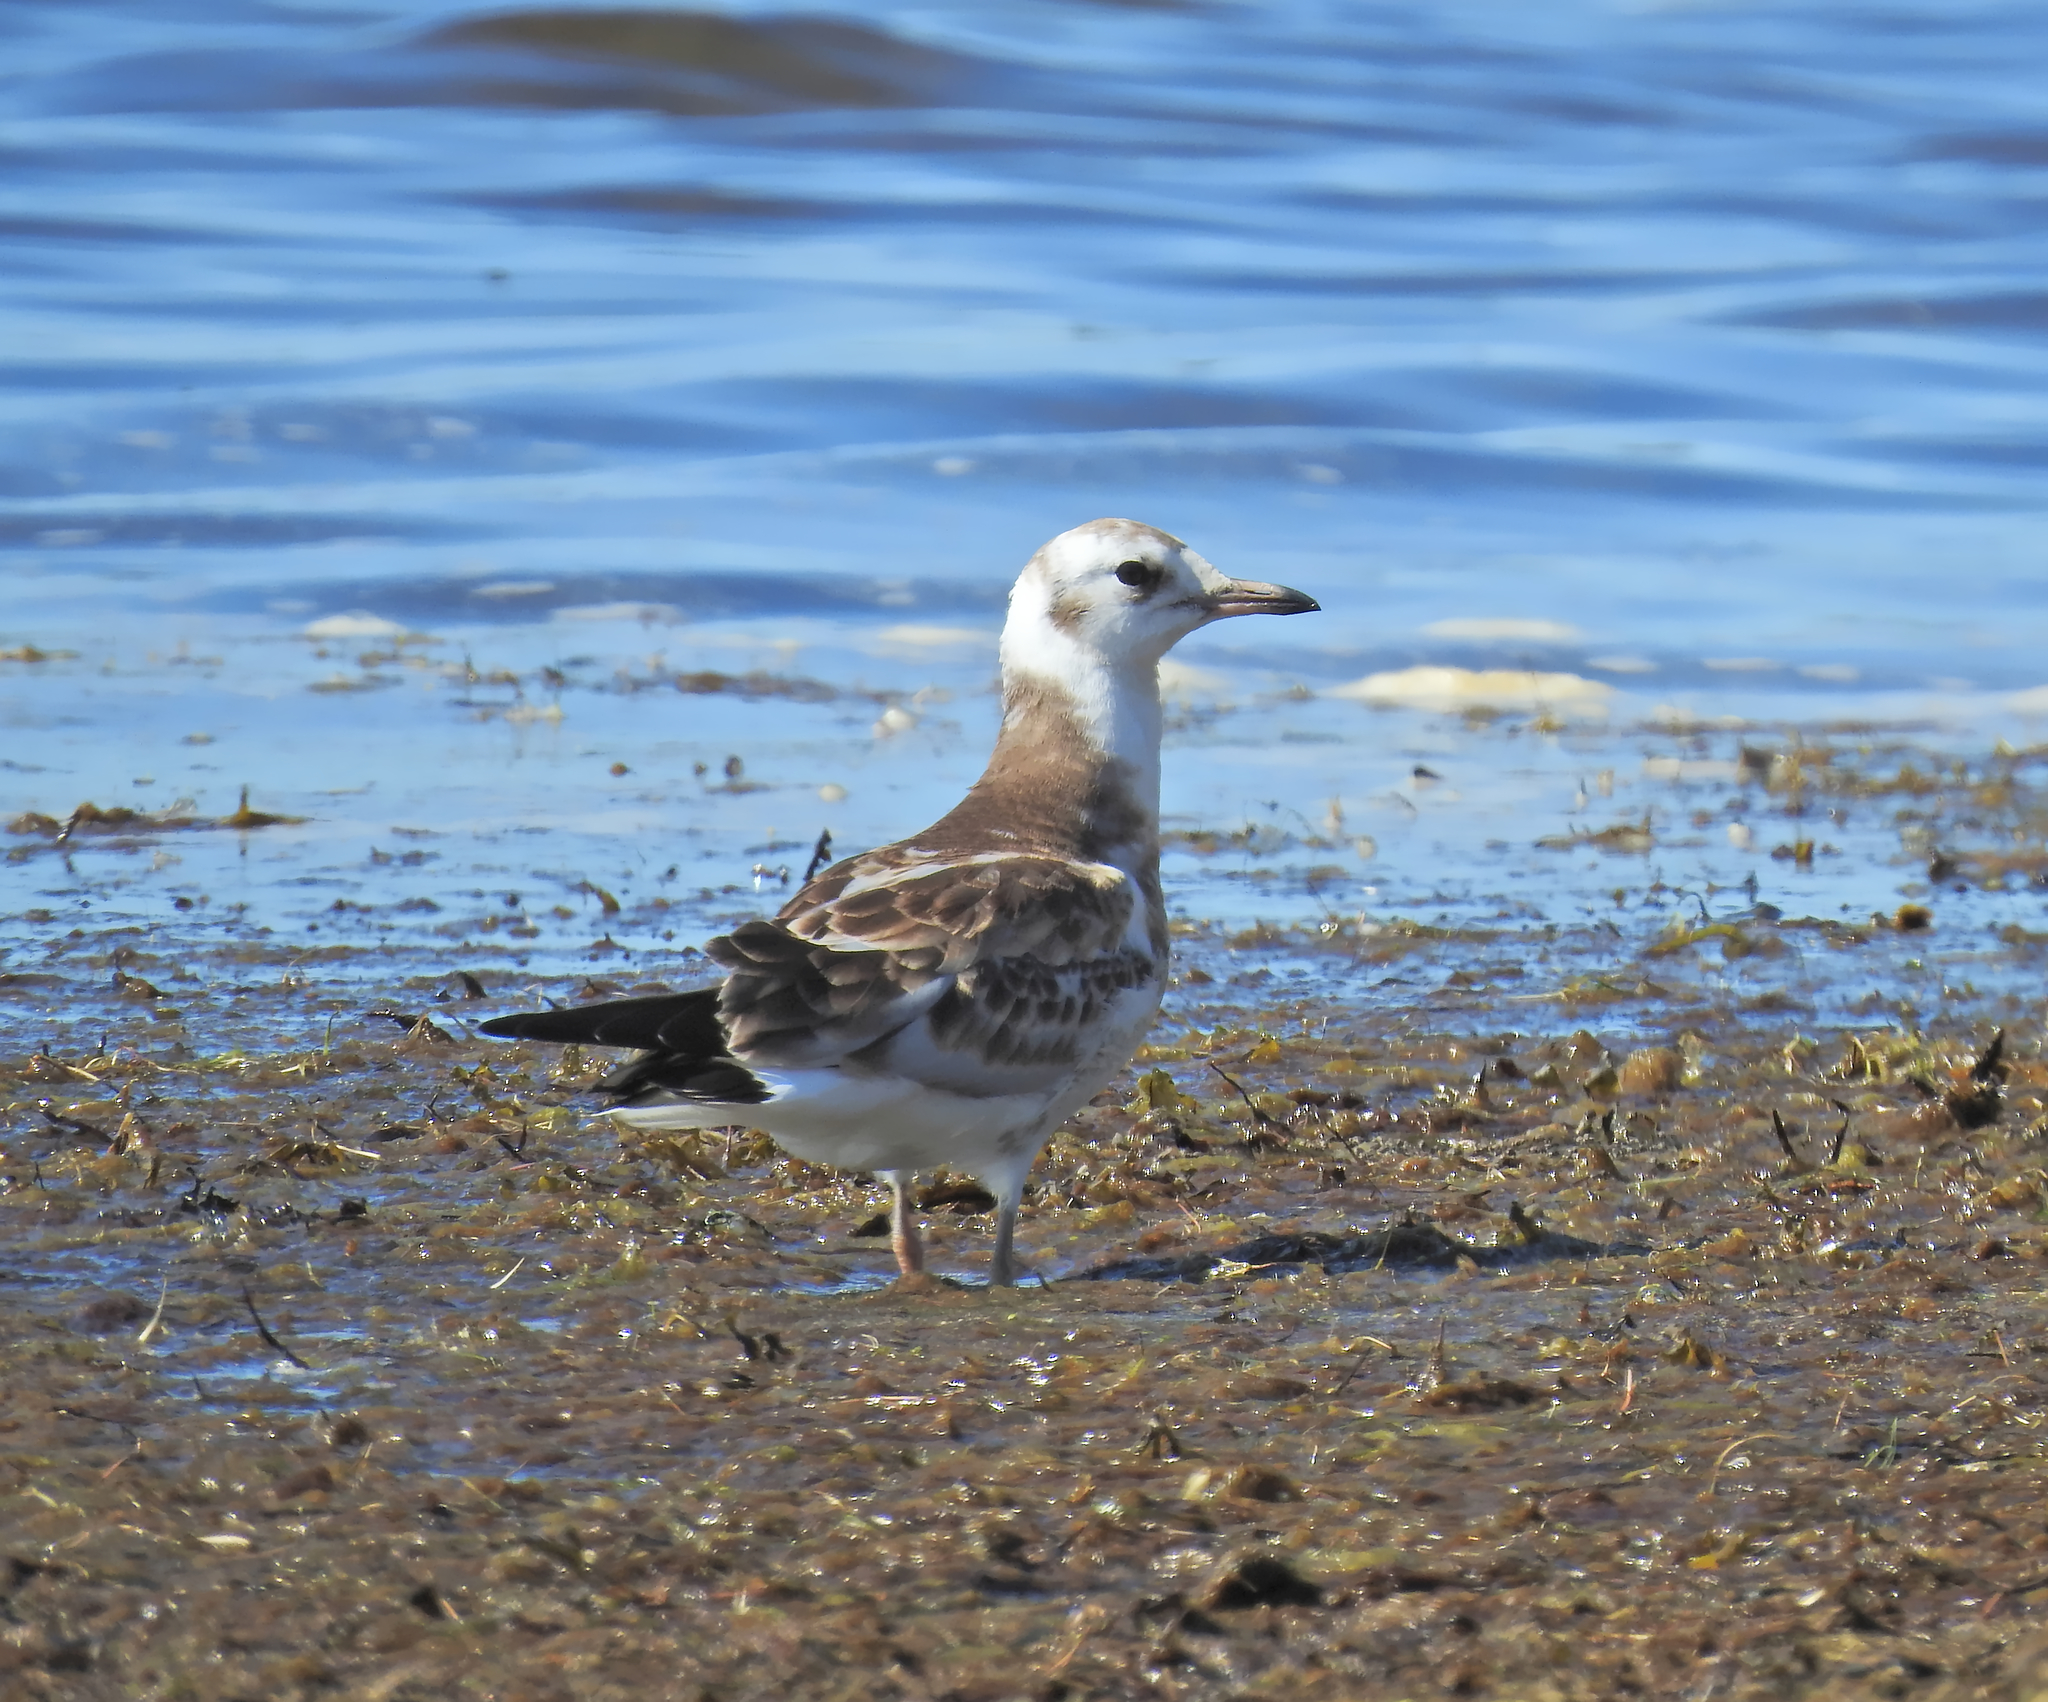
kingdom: Animalia
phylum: Chordata
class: Aves
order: Charadriiformes
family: Laridae
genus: Chroicocephalus
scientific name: Chroicocephalus ridibundus
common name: Black-headed gull
